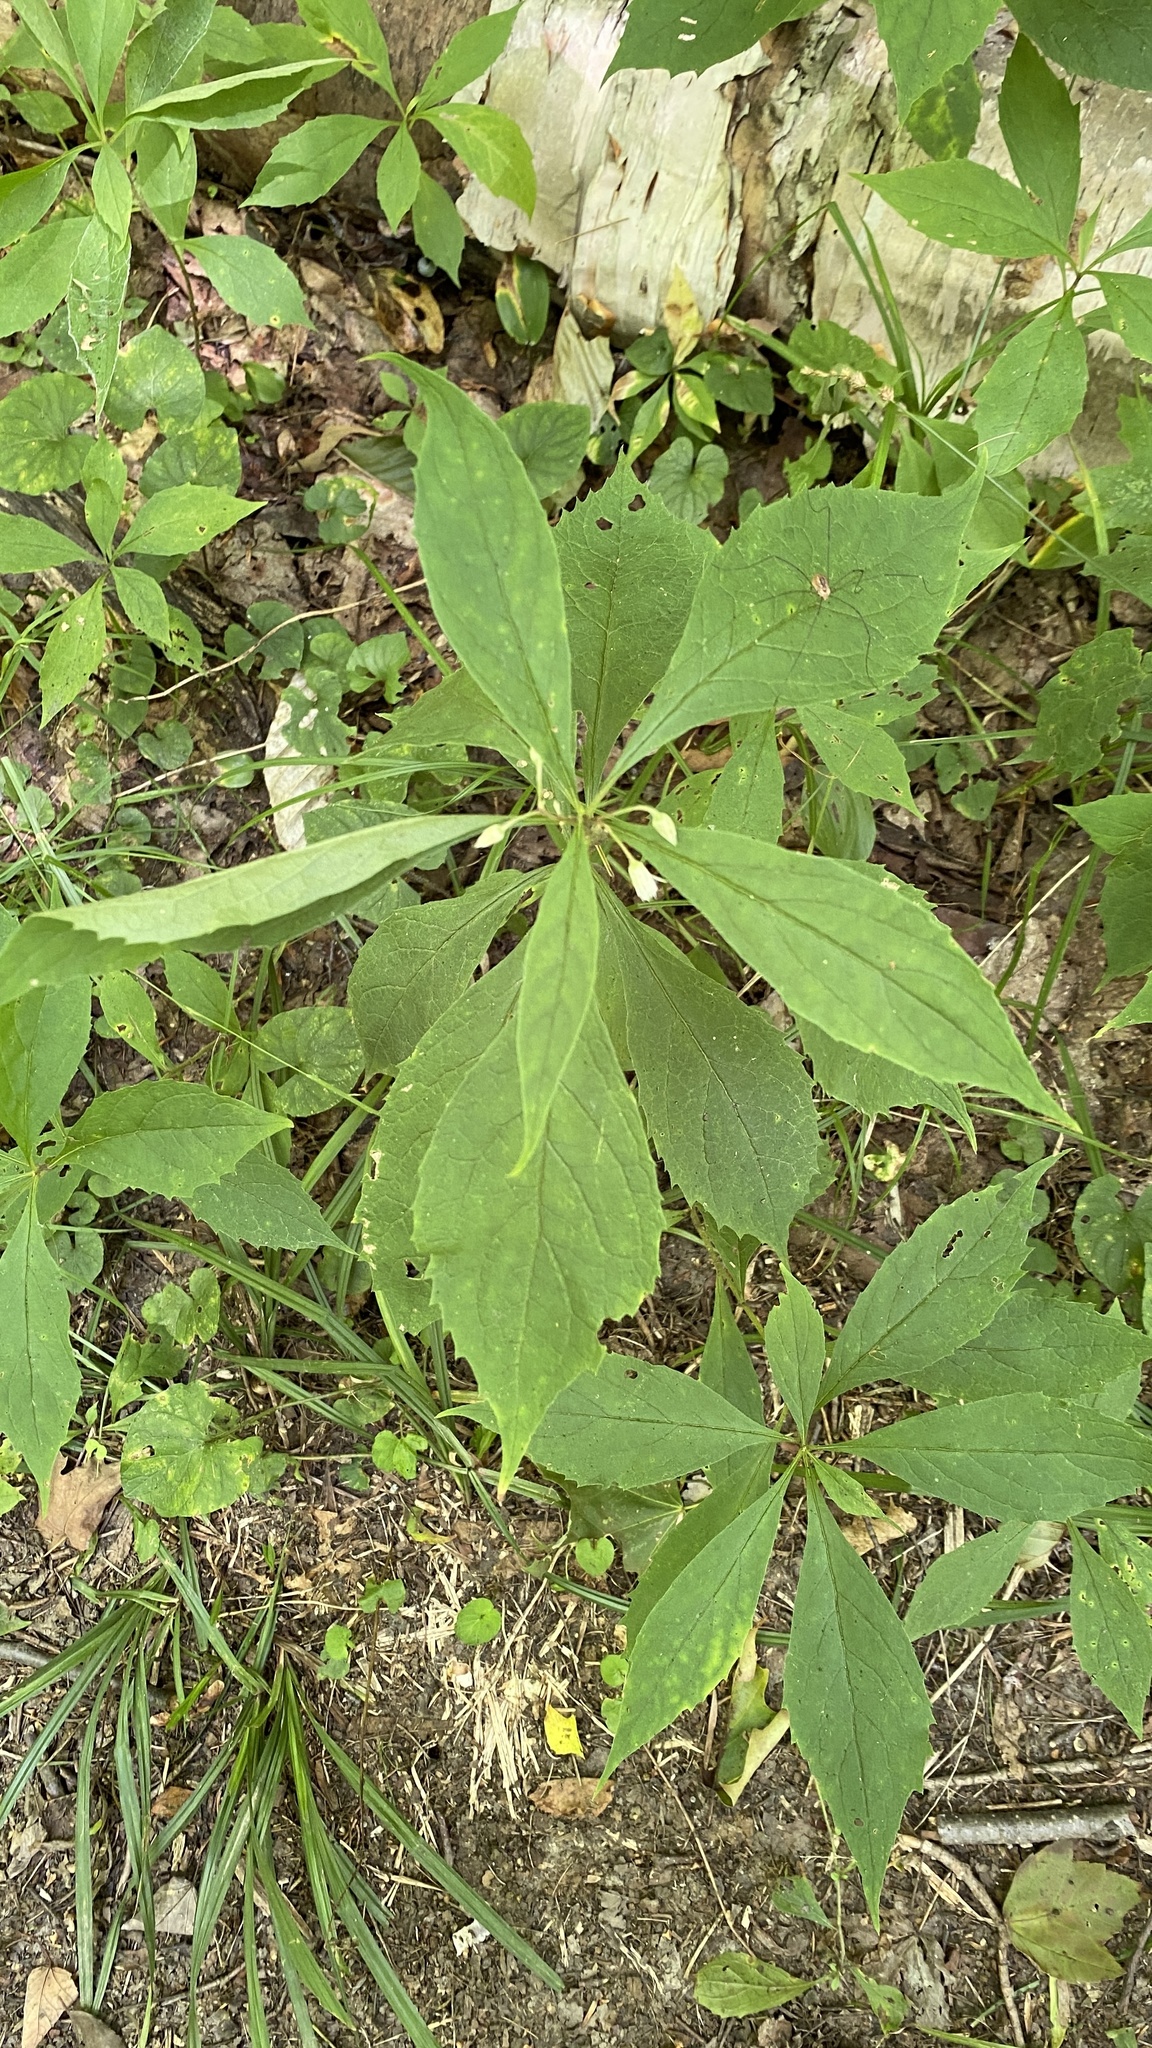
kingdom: Plantae
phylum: Tracheophyta
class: Magnoliopsida
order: Asterales
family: Asteraceae
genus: Oclemena
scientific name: Oclemena acuminata
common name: Mountain aster
